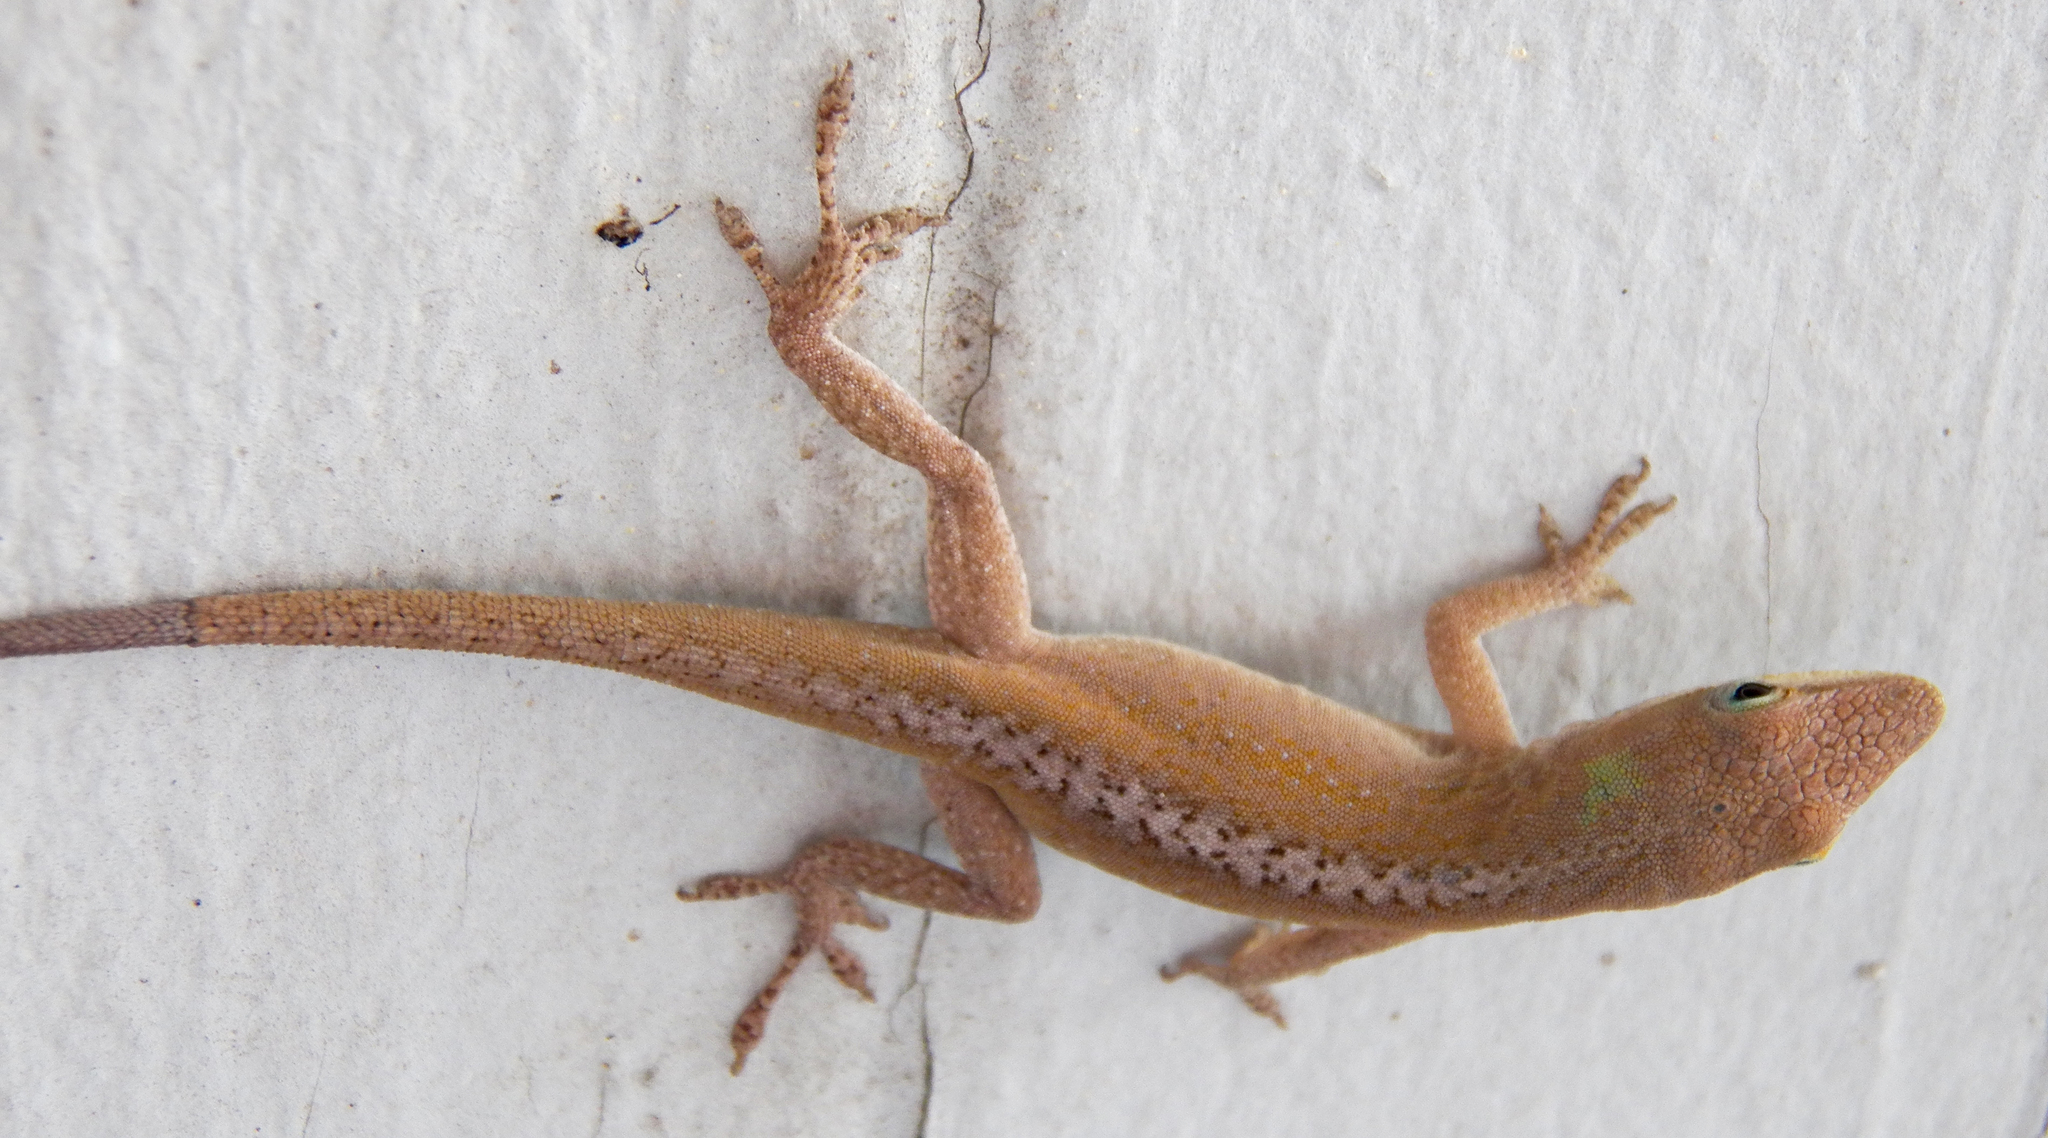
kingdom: Animalia
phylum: Chordata
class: Squamata
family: Dactyloidae
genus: Anolis
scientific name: Anolis carolinensis
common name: Green anole
